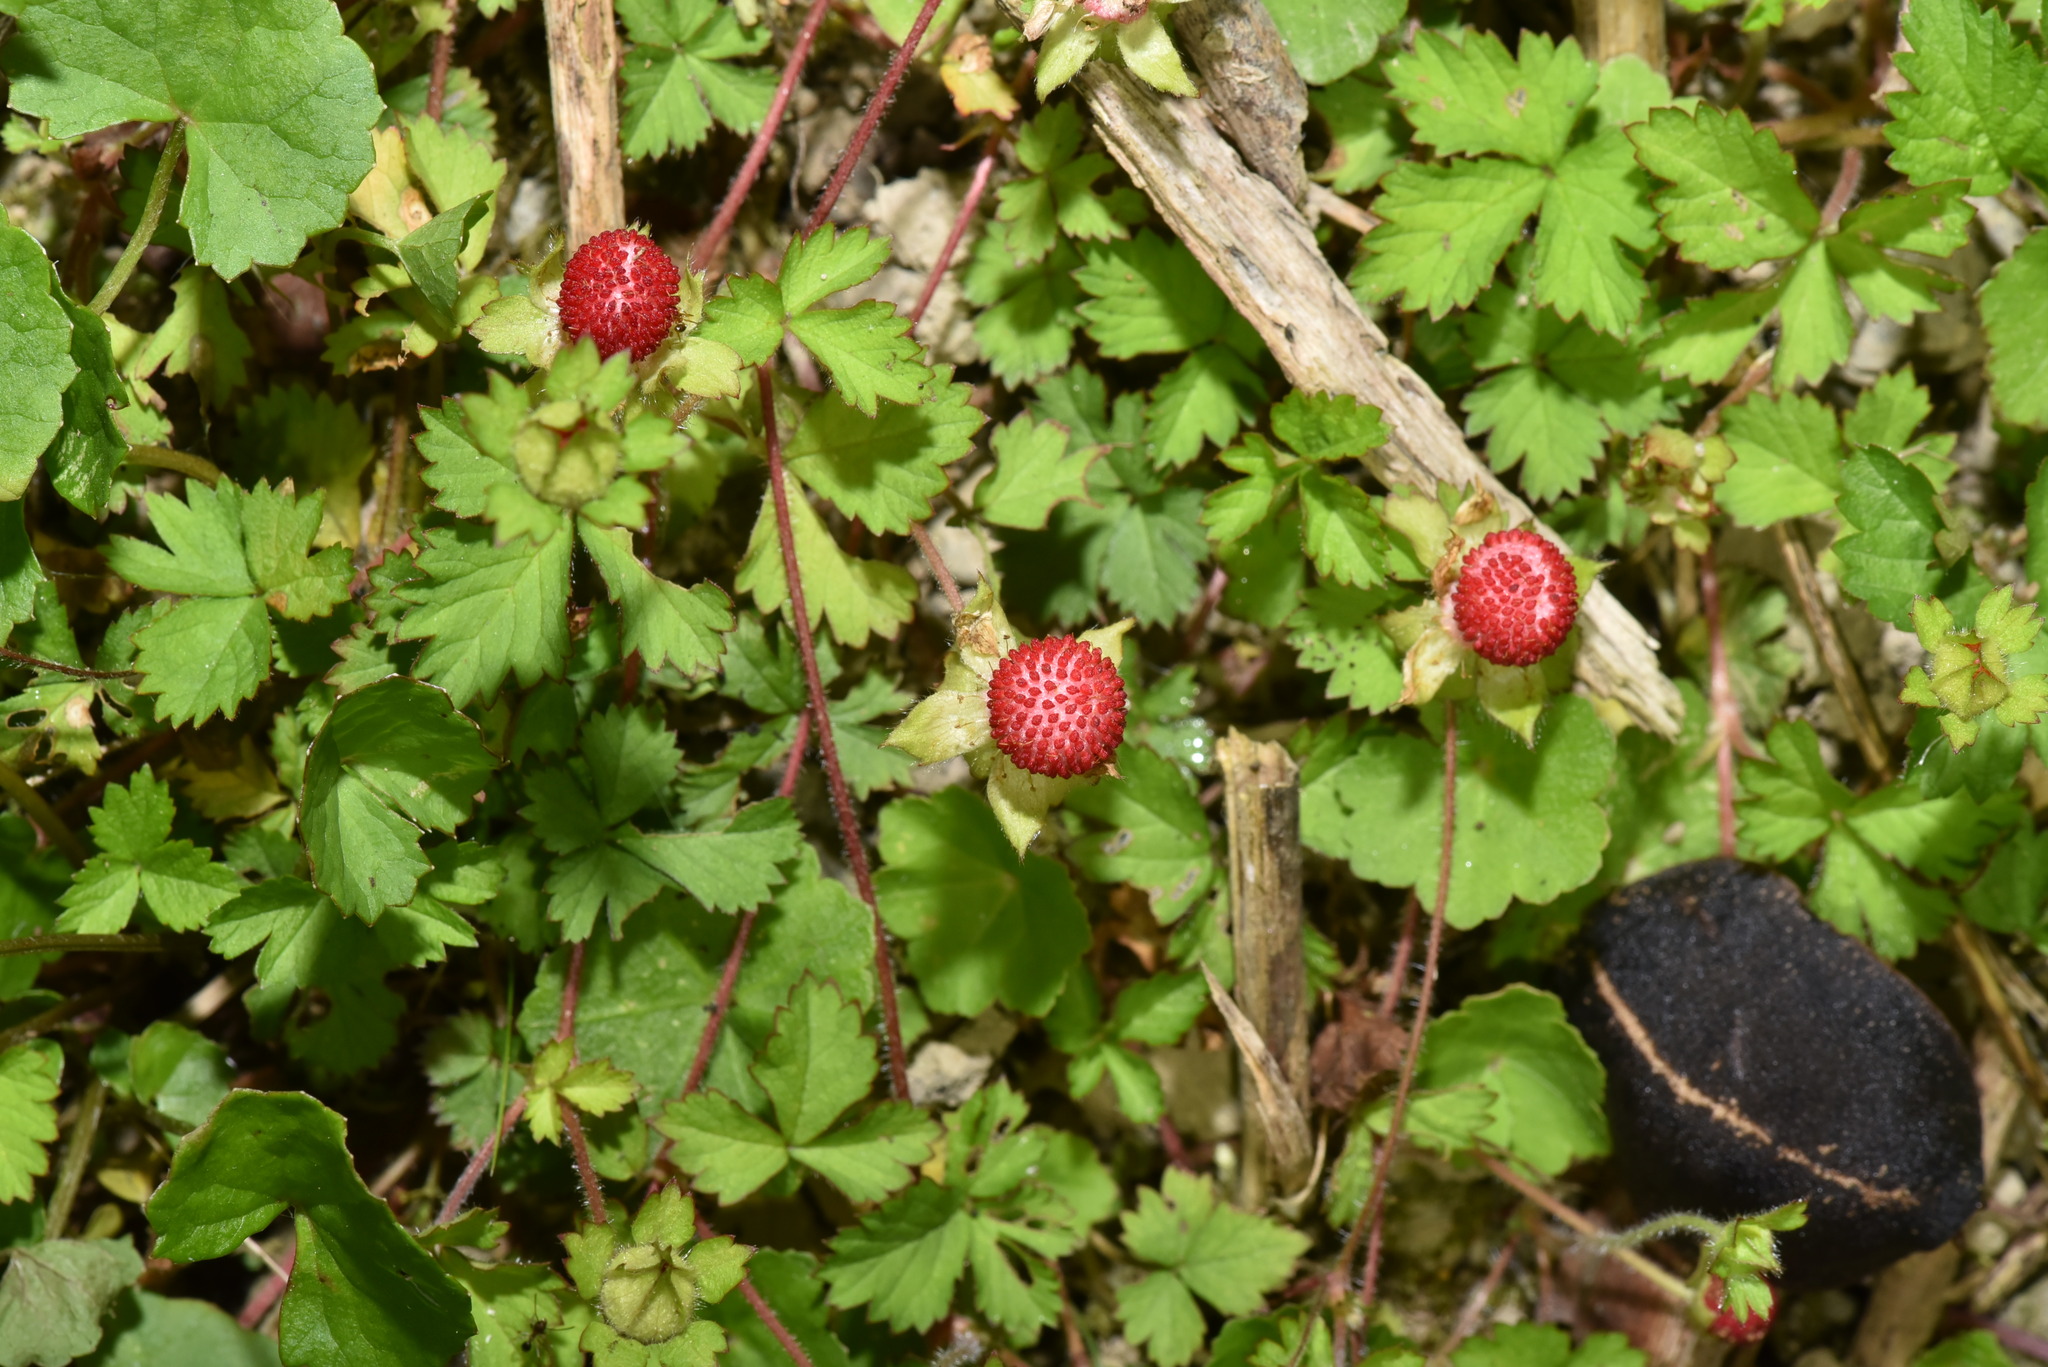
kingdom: Plantae
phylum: Tracheophyta
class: Magnoliopsida
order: Rosales
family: Rosaceae
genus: Potentilla
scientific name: Potentilla wallichiana
